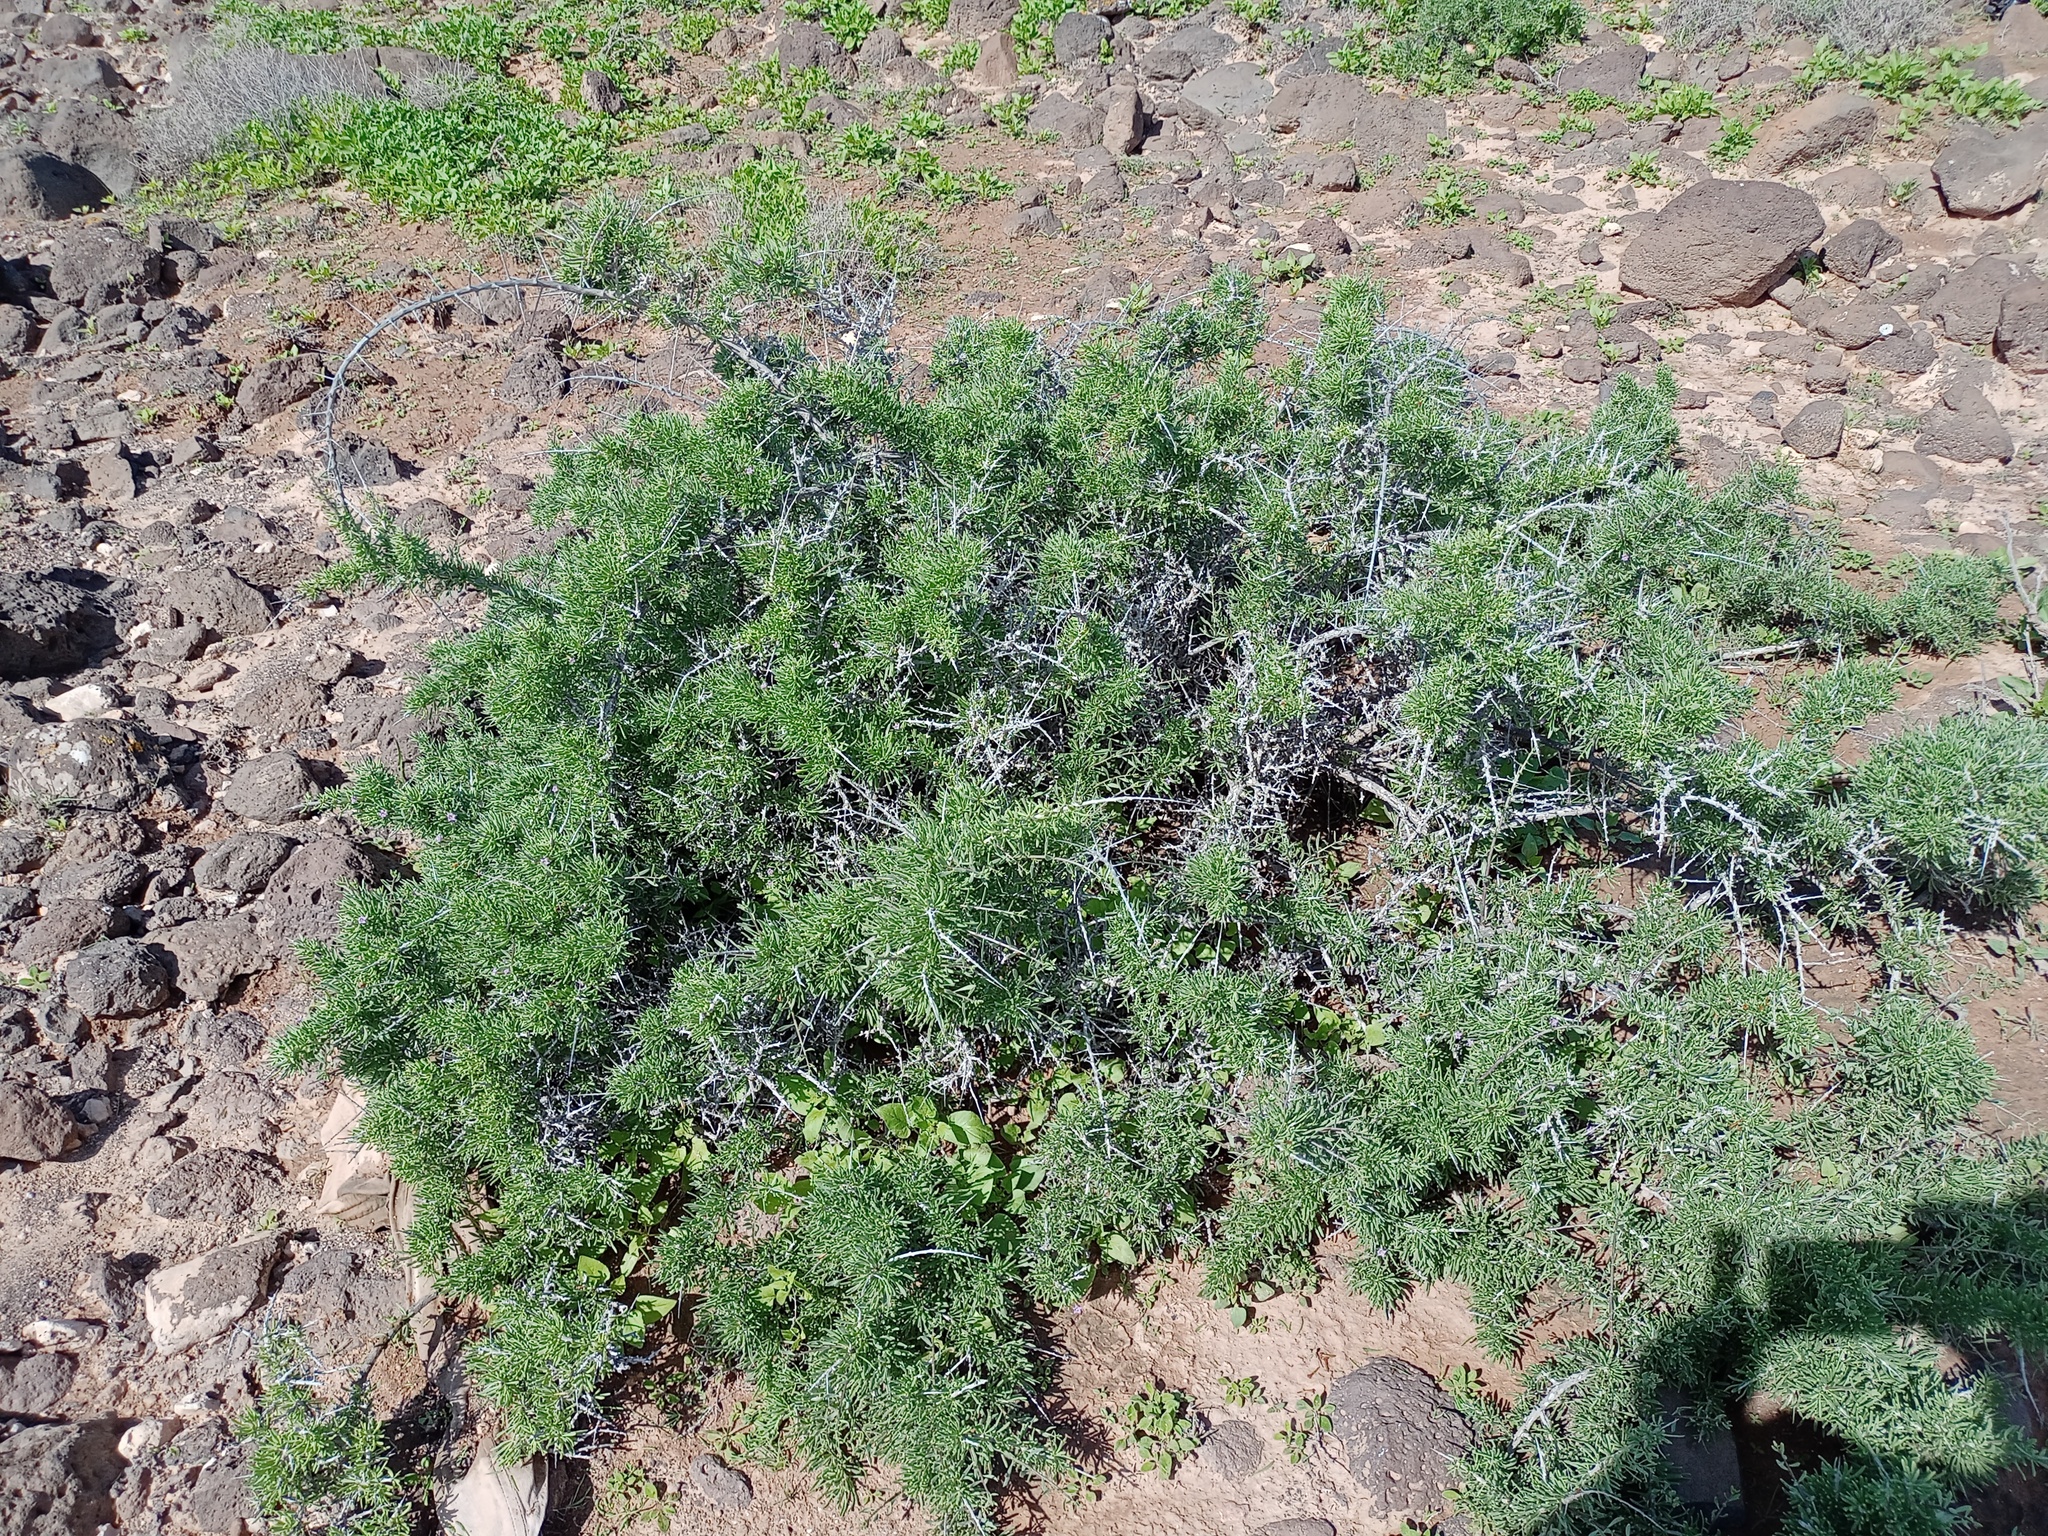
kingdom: Plantae
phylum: Tracheophyta
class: Magnoliopsida
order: Solanales
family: Solanaceae
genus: Lycium
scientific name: Lycium intricatum
